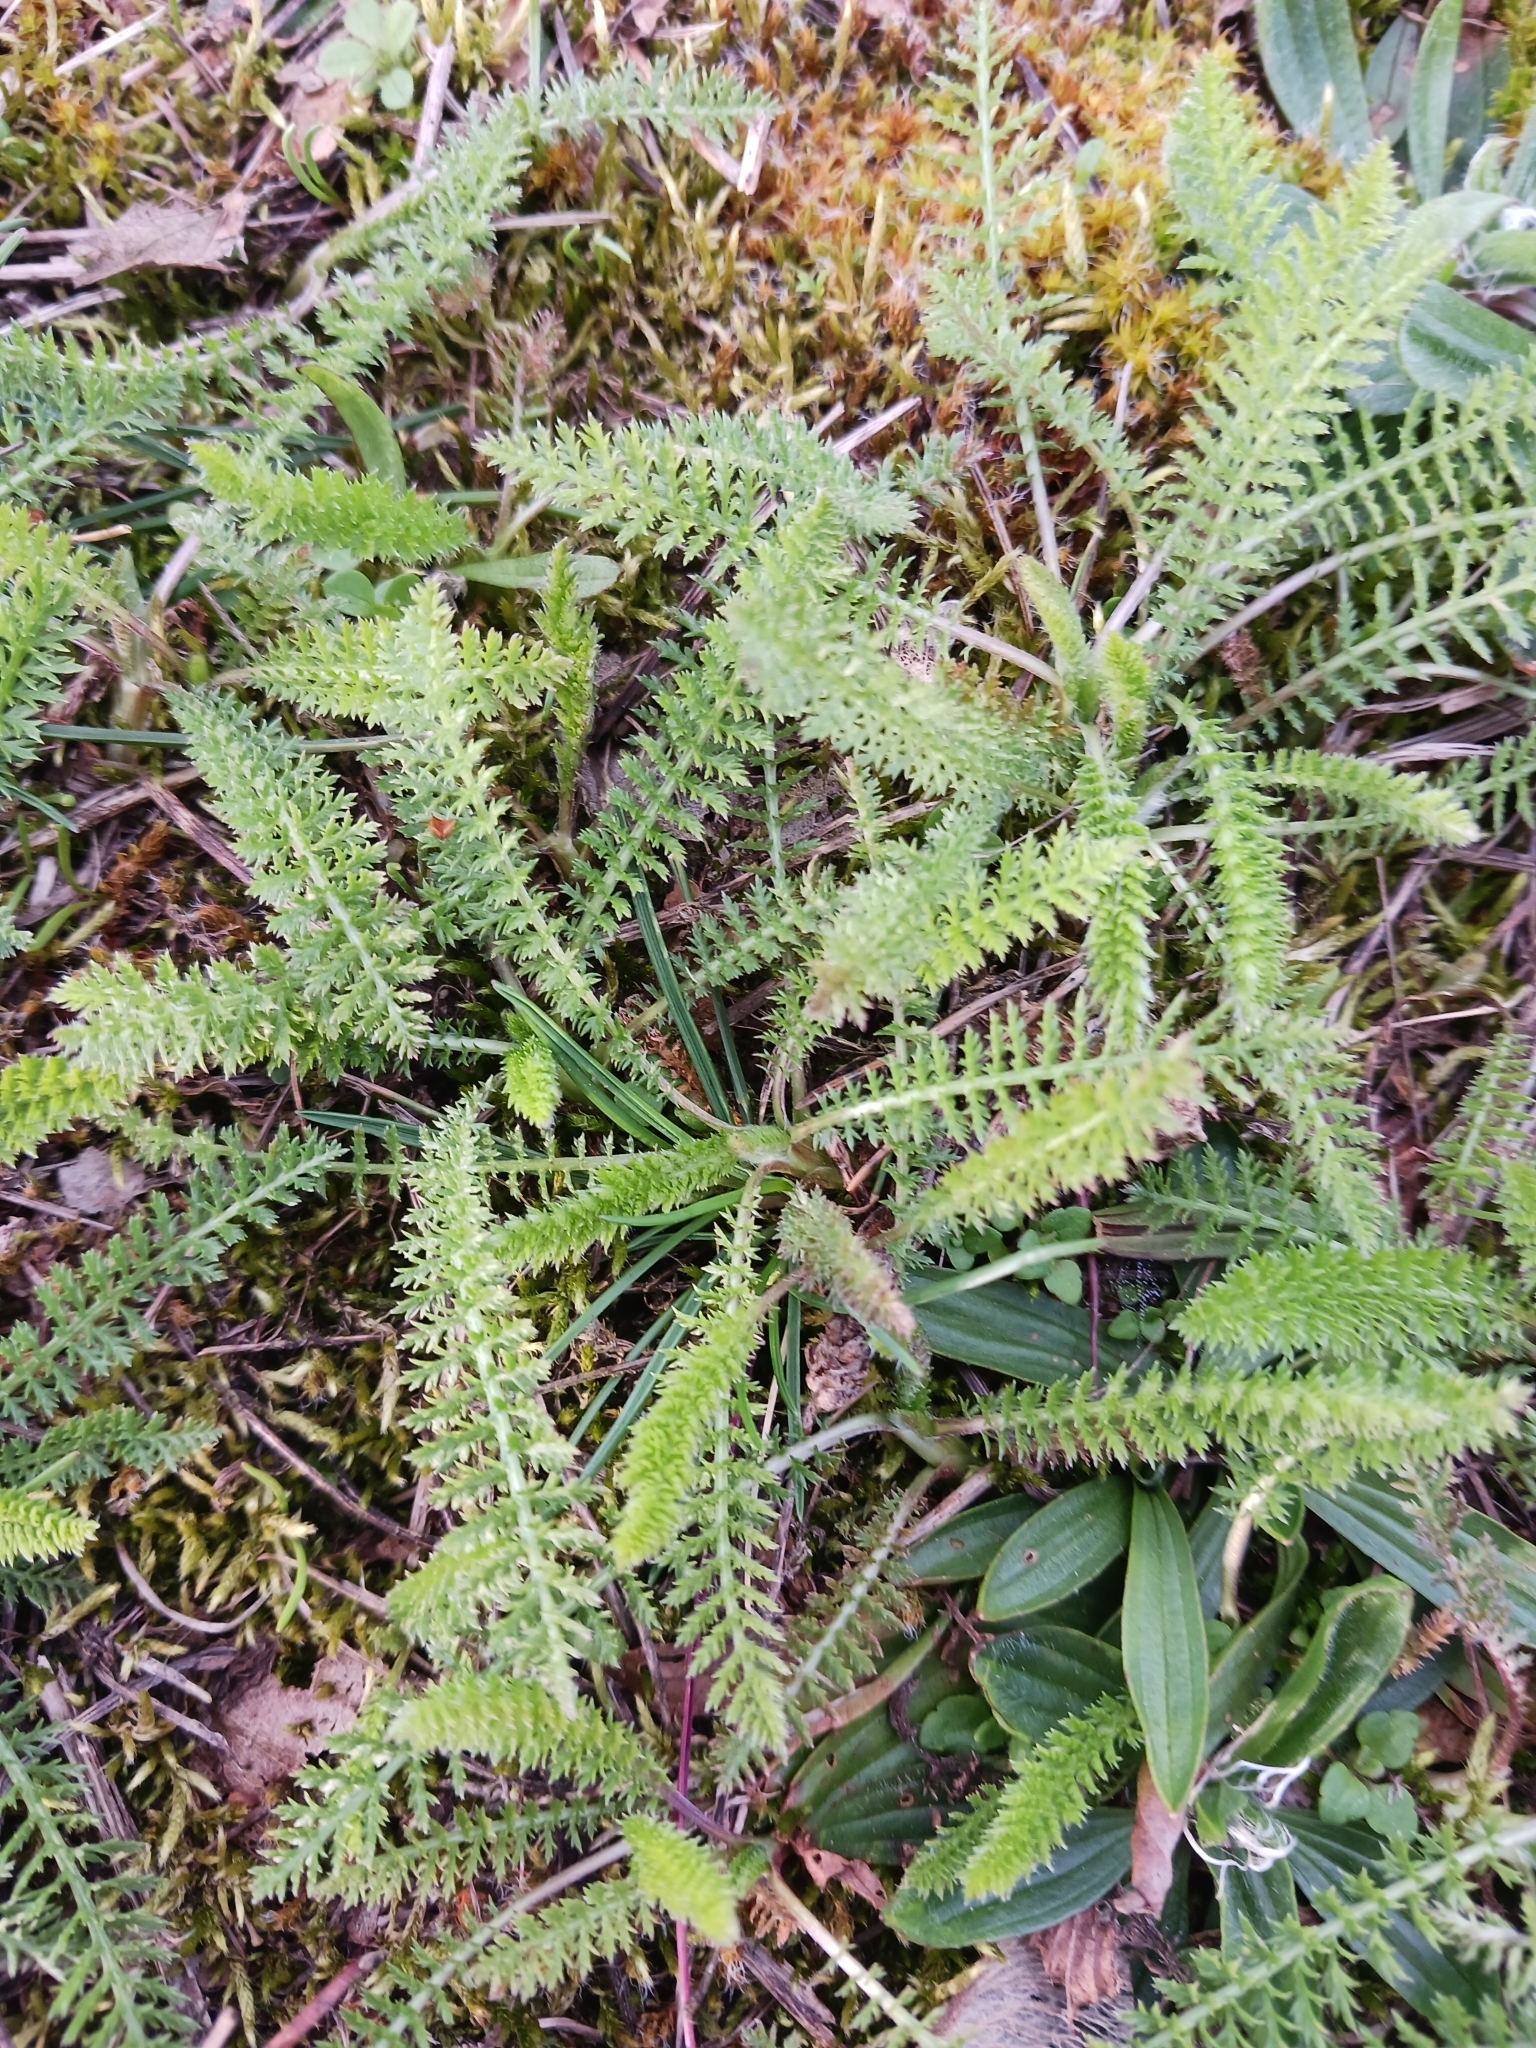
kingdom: Plantae
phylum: Tracheophyta
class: Magnoliopsida
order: Asterales
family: Asteraceae
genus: Achillea
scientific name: Achillea
